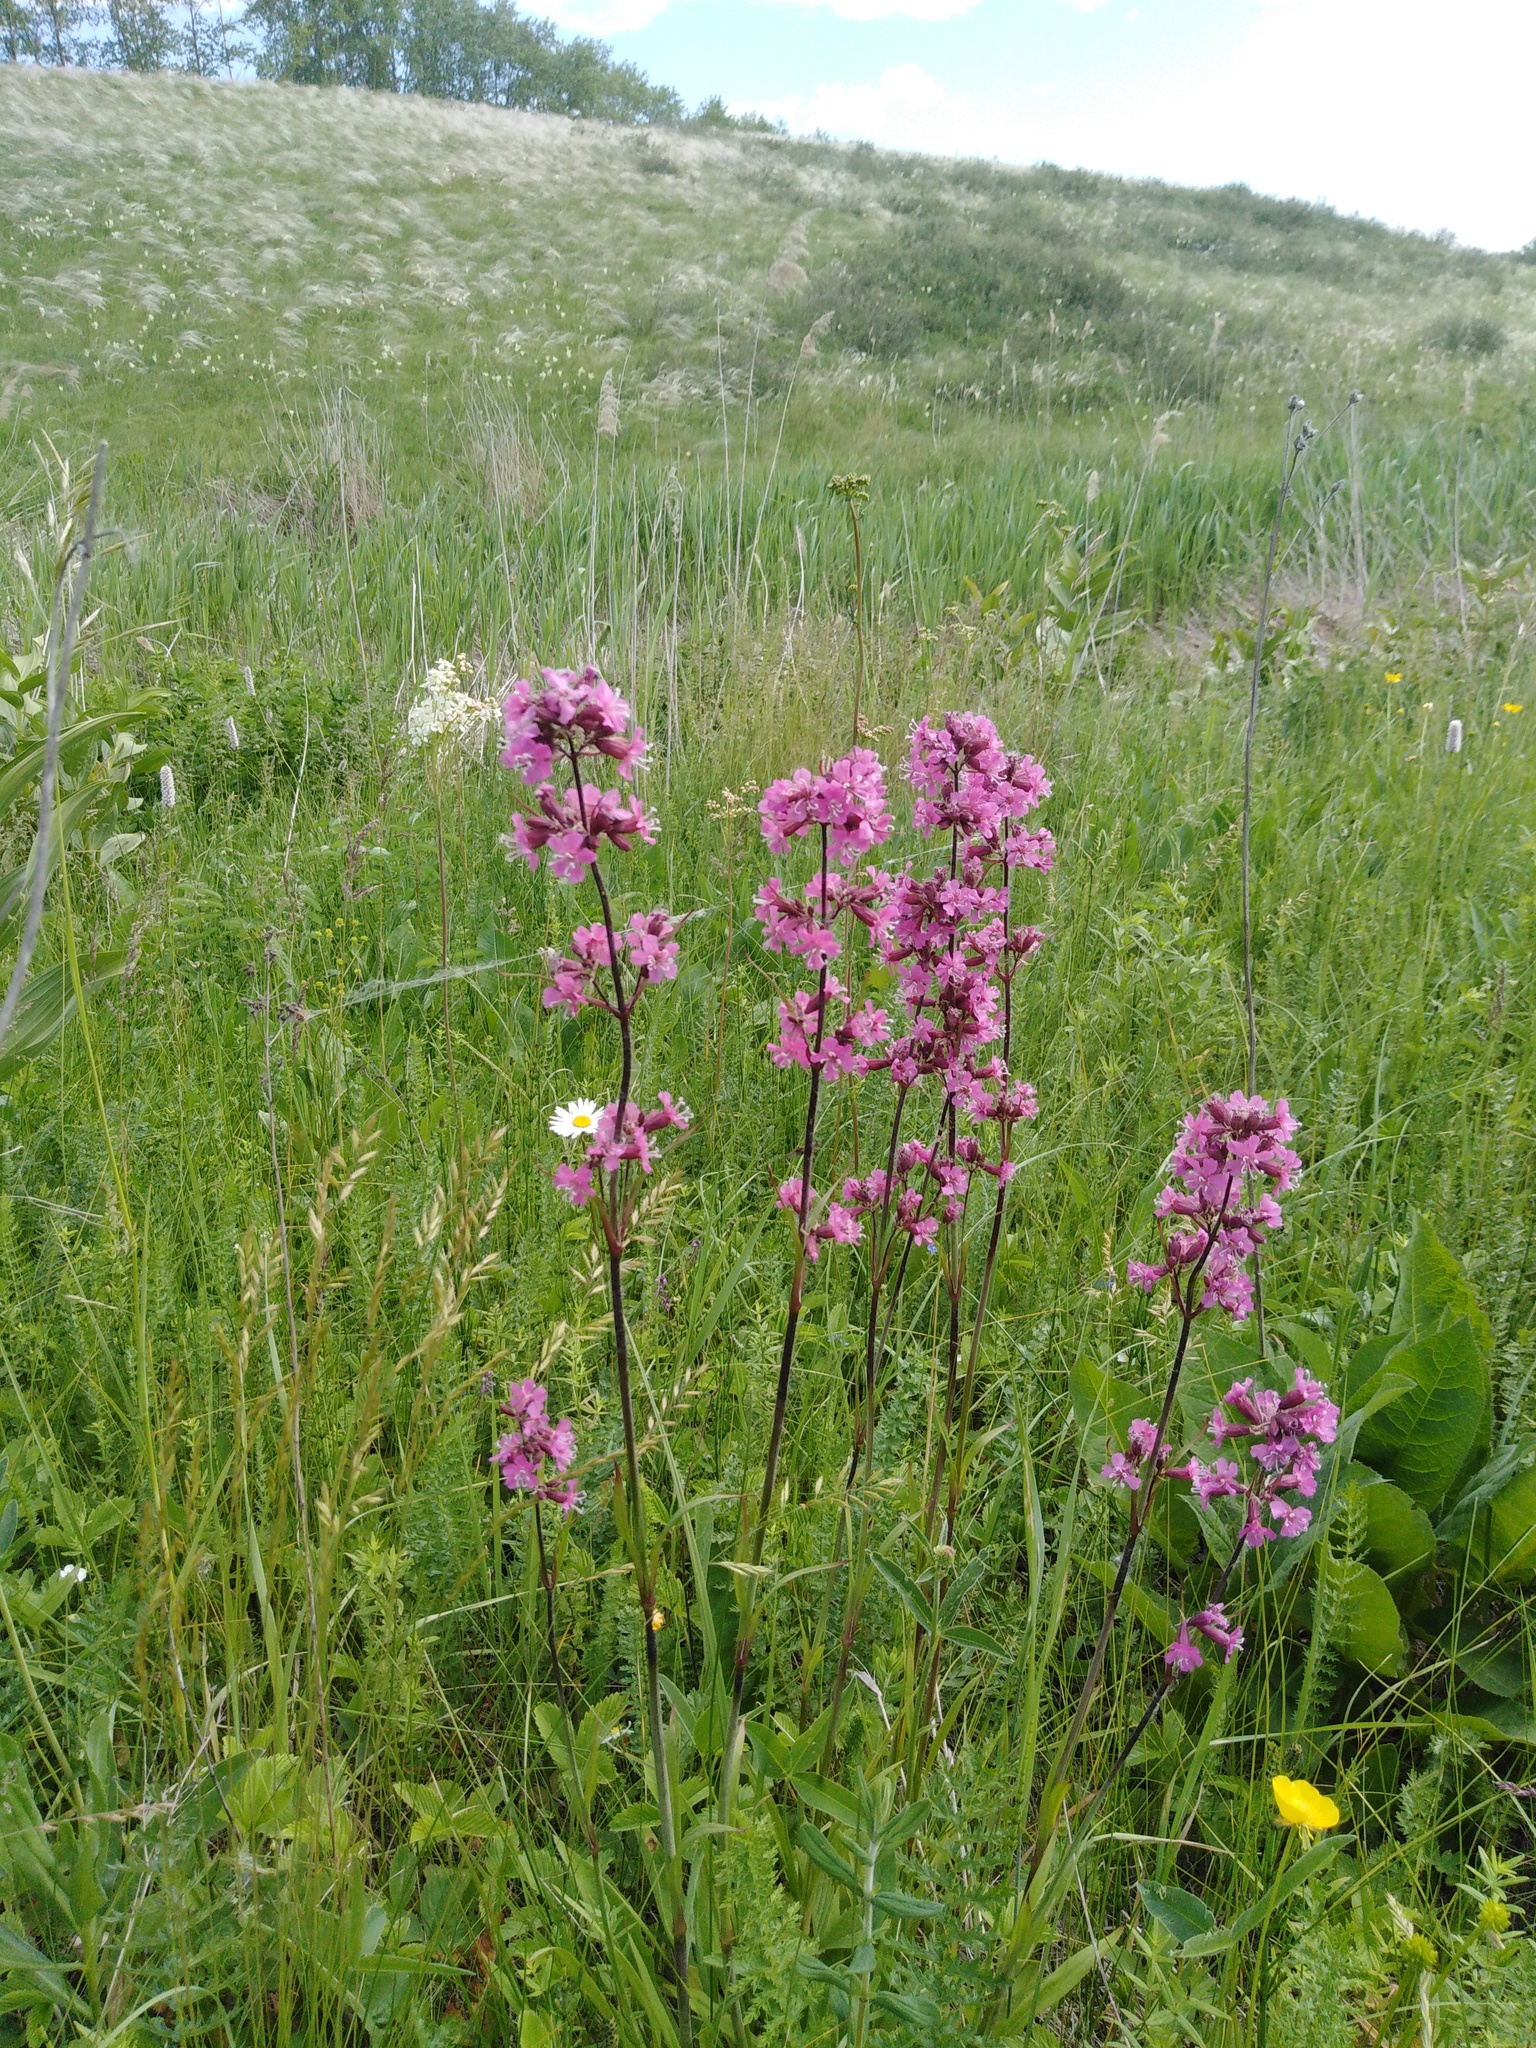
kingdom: Plantae
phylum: Tracheophyta
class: Magnoliopsida
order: Caryophyllales
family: Caryophyllaceae
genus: Viscaria
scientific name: Viscaria vulgaris
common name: Clammy campion
